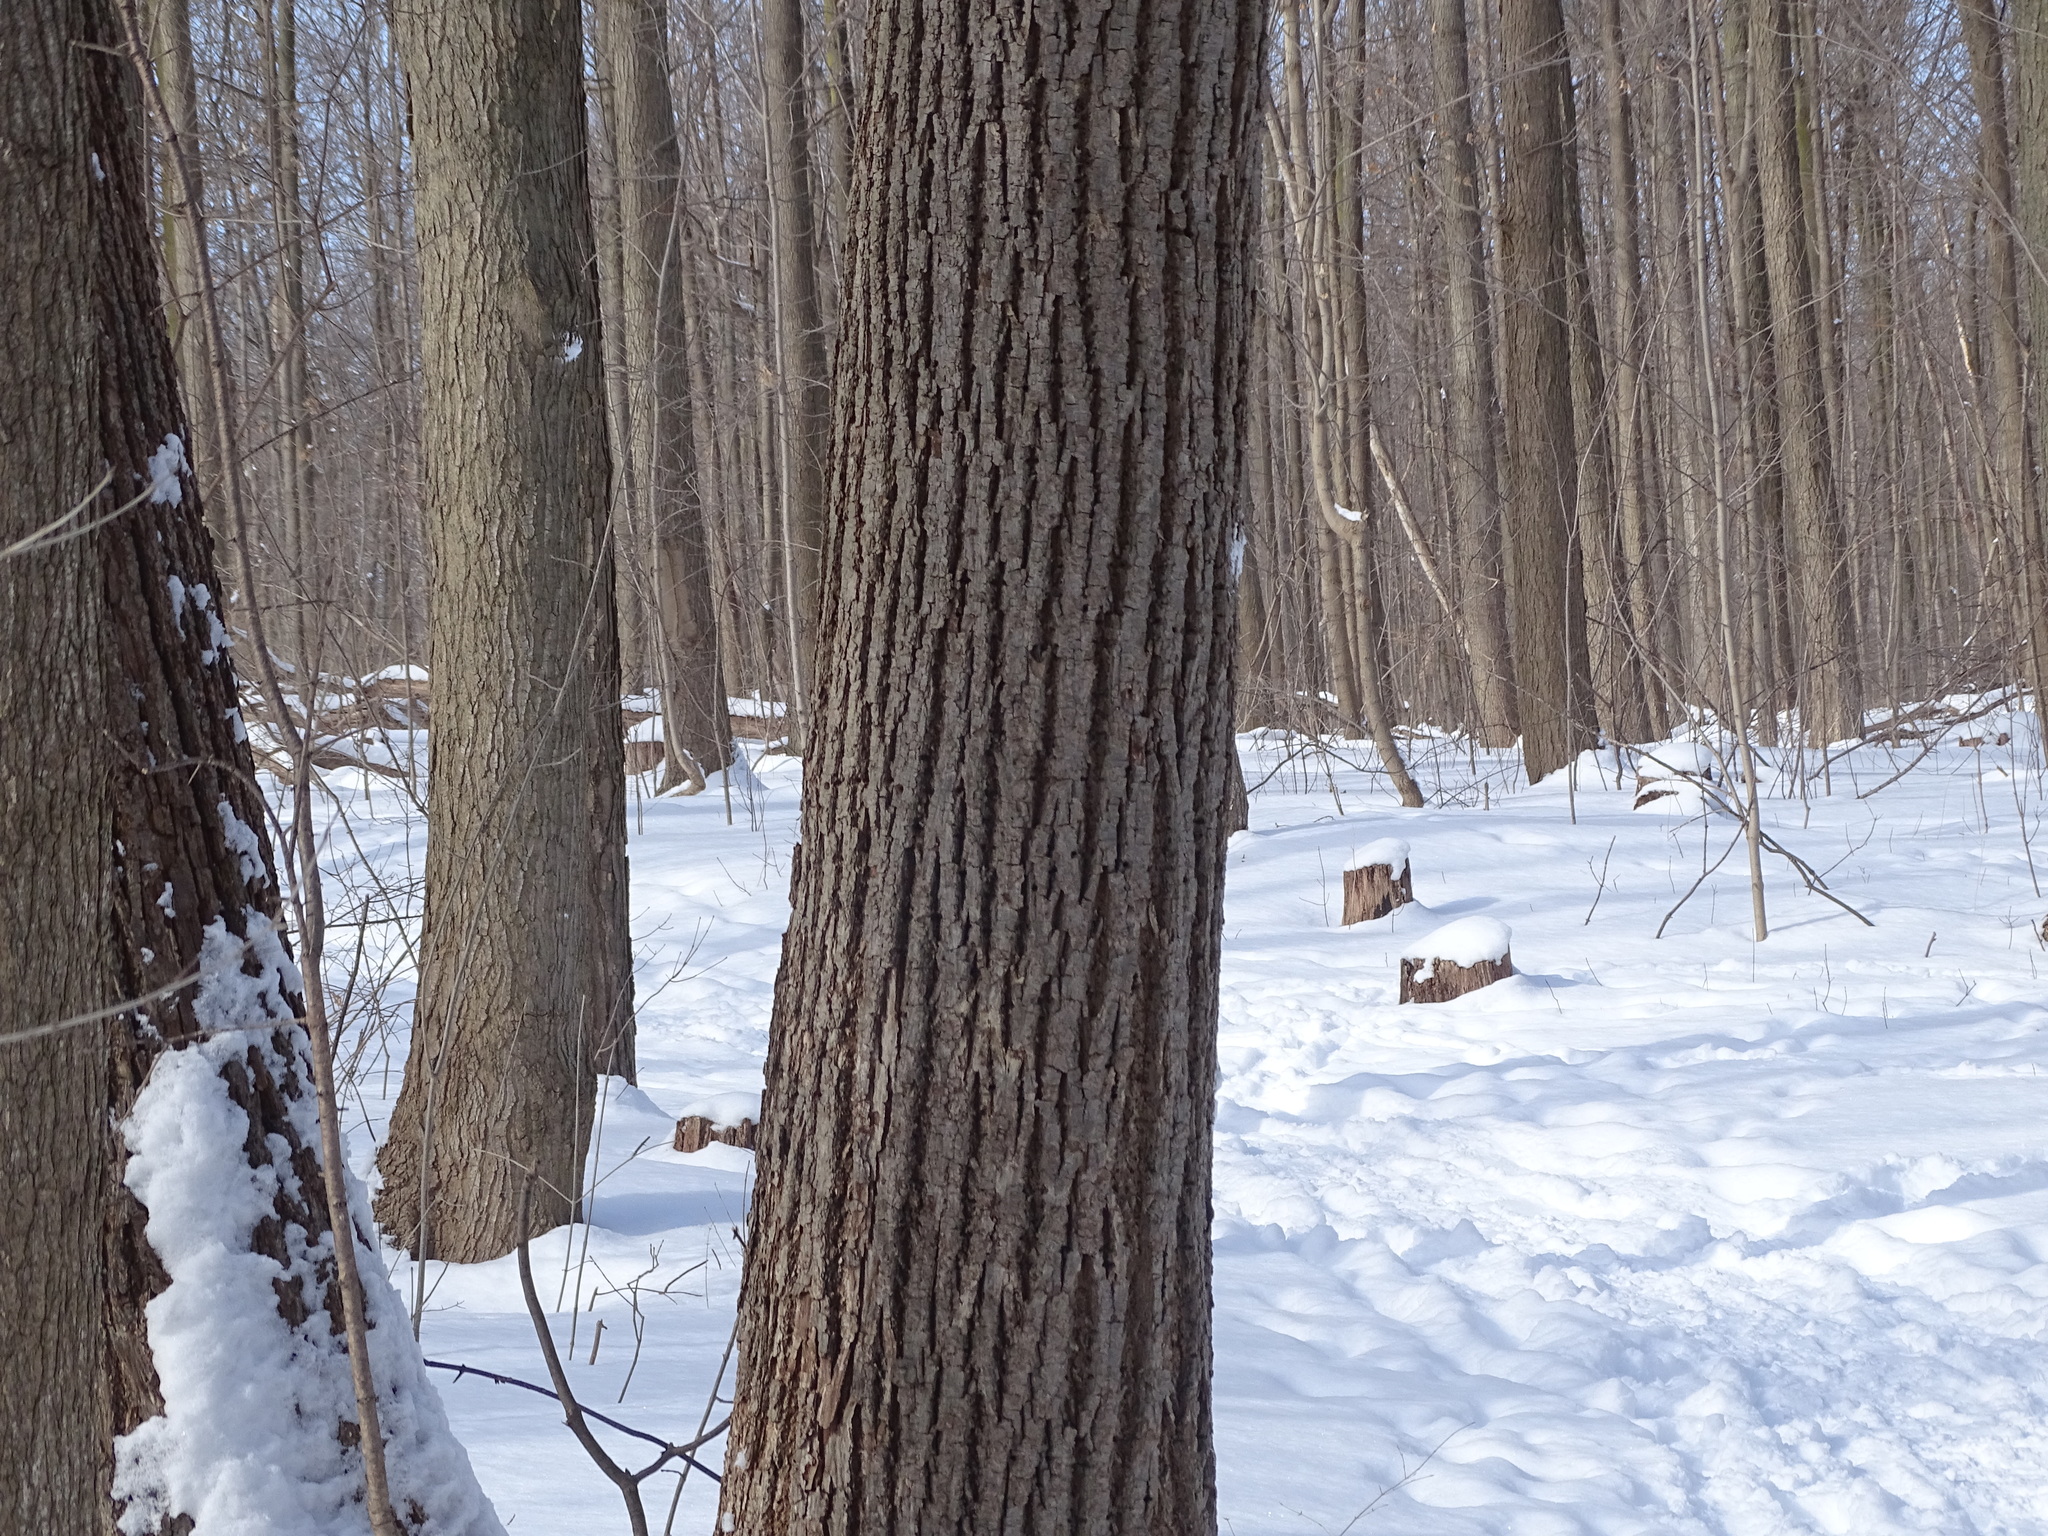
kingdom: Plantae
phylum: Tracheophyta
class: Magnoliopsida
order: Malvales
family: Malvaceae
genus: Tilia
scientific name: Tilia americana
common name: Basswood
